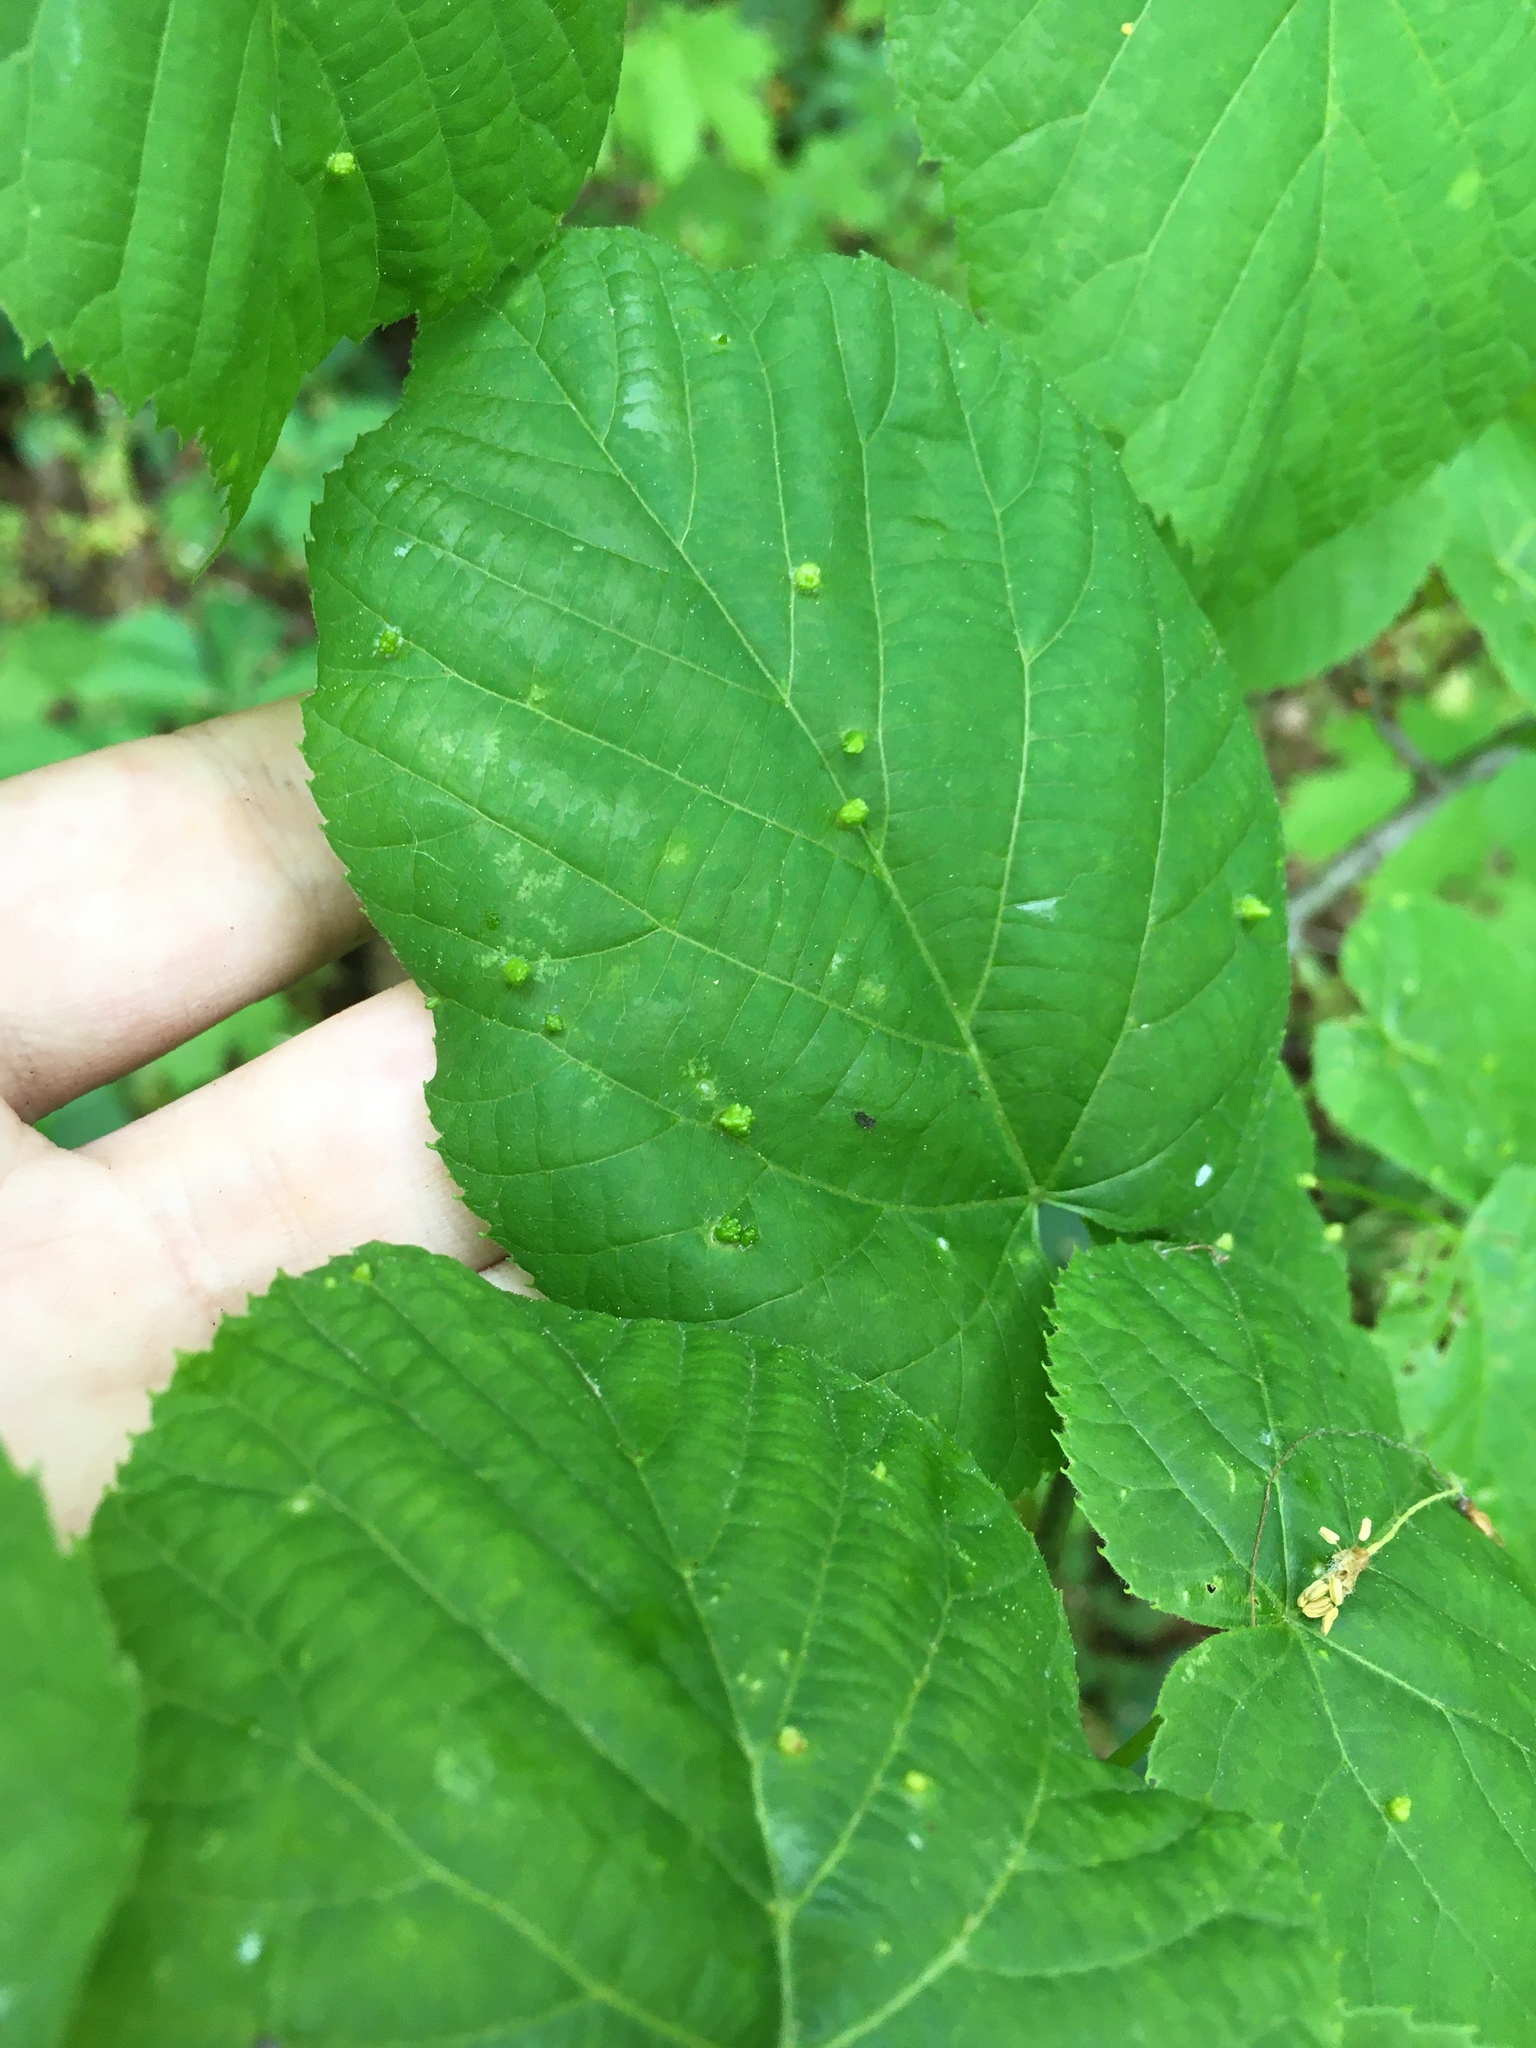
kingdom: Animalia
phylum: Arthropoda
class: Arachnida
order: Trombidiformes
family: Phytoptidae
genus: Phytoptus
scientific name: Phytoptus abnormis
